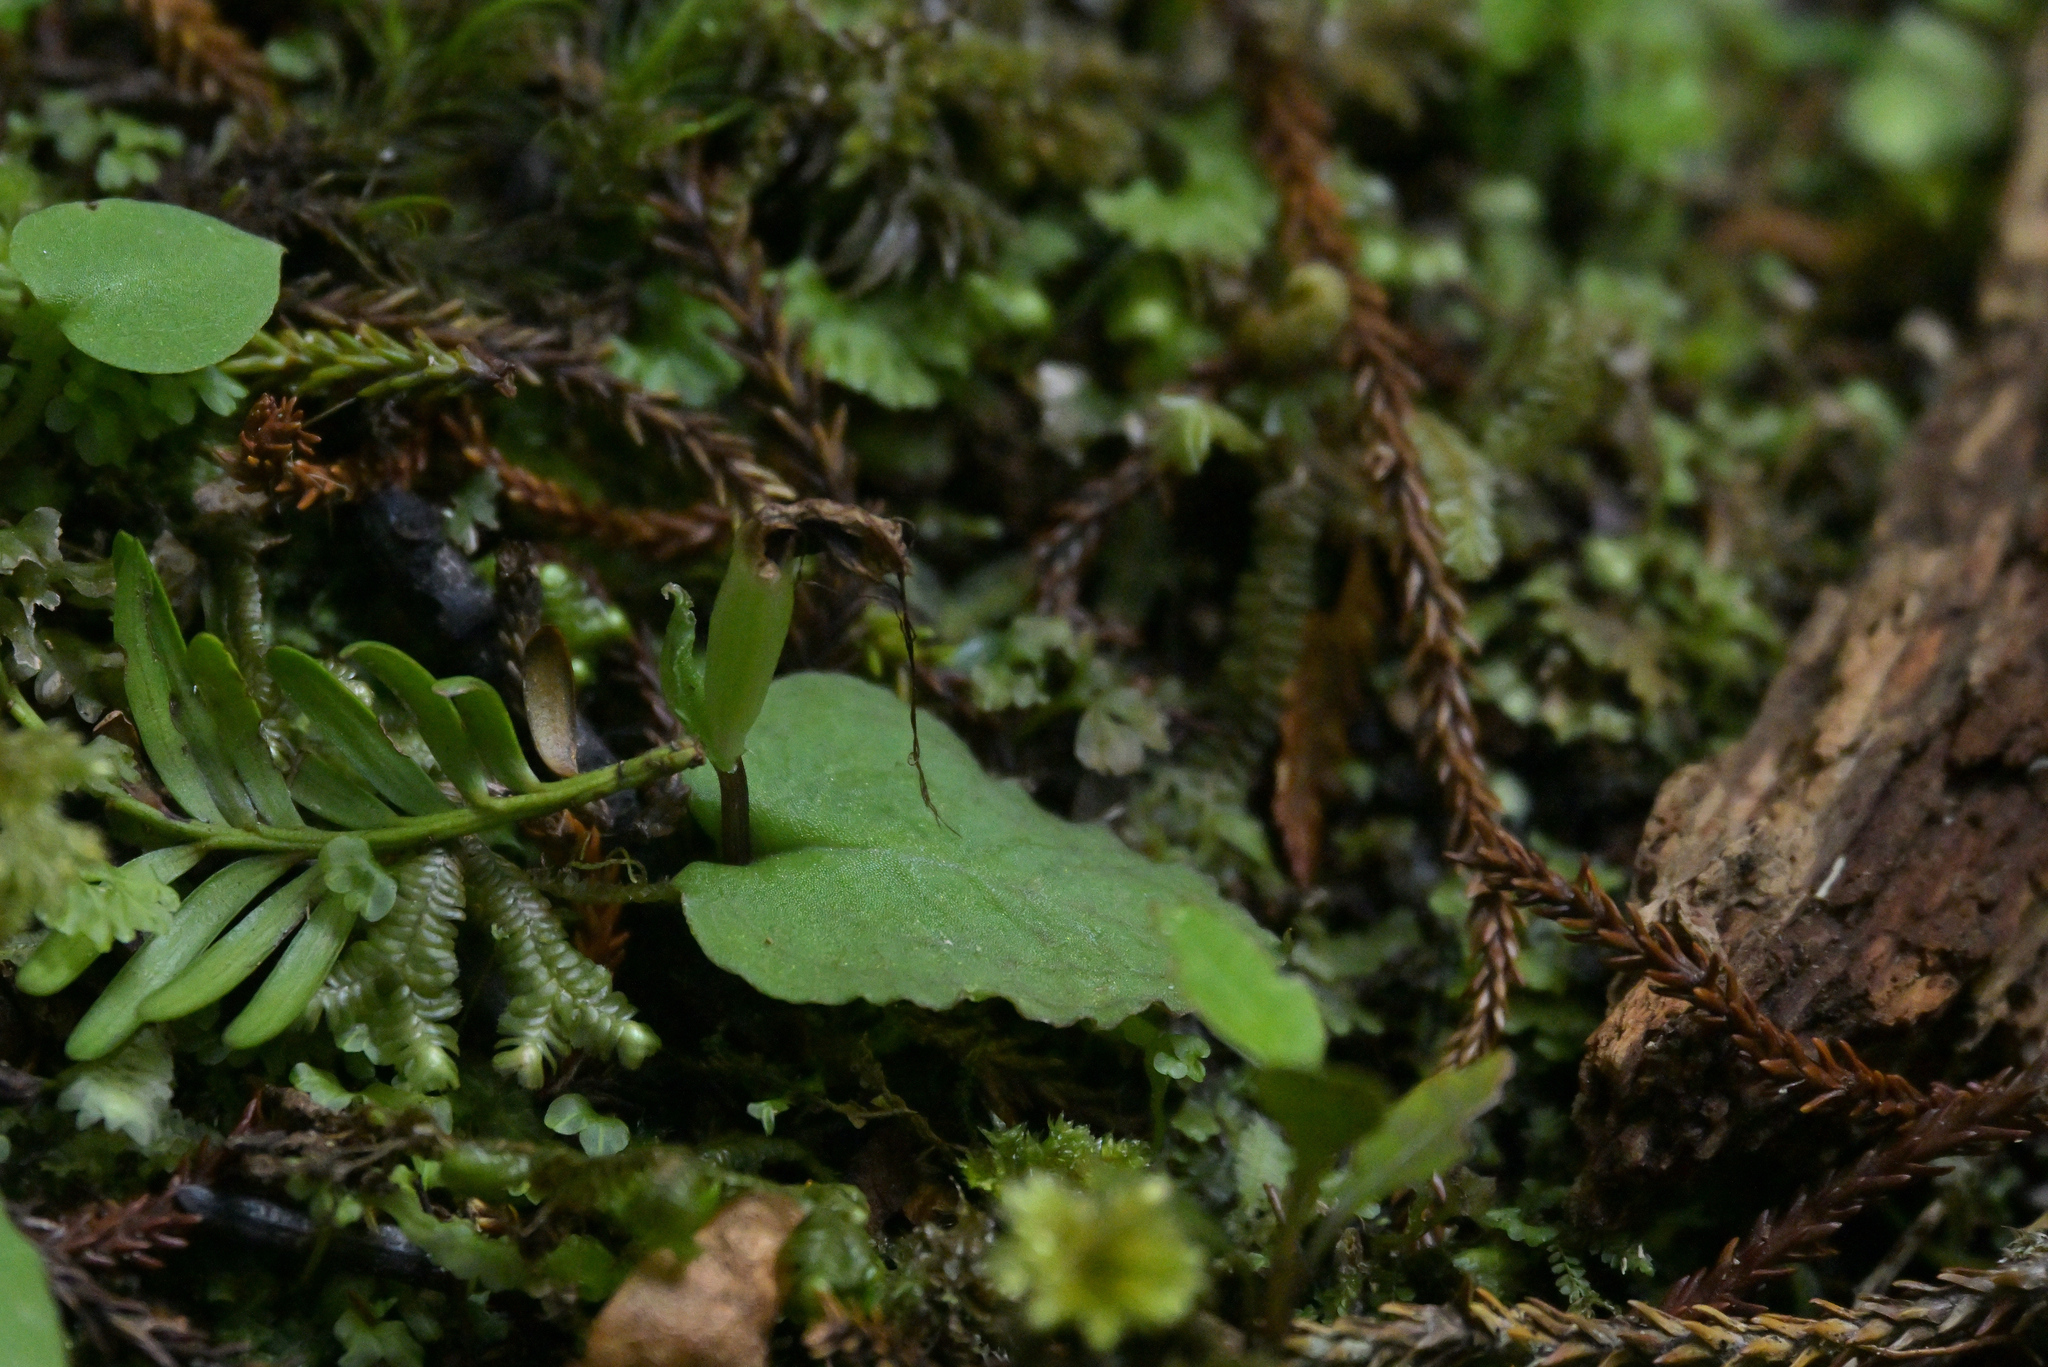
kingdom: Plantae
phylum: Tracheophyta
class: Liliopsida
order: Asparagales
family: Orchidaceae
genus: Corybas
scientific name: Corybas acuminatus
